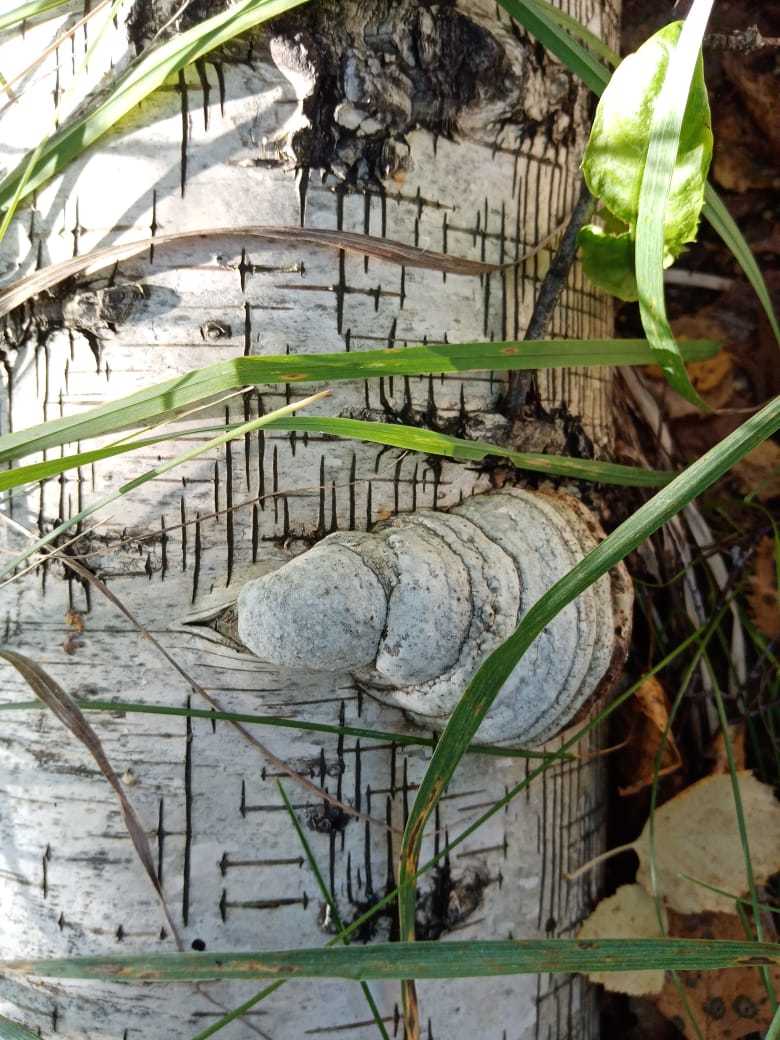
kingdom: Fungi
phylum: Basidiomycota
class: Agaricomycetes
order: Polyporales
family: Polyporaceae
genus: Fomes
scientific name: Fomes fomentarius
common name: Hoof fungus
